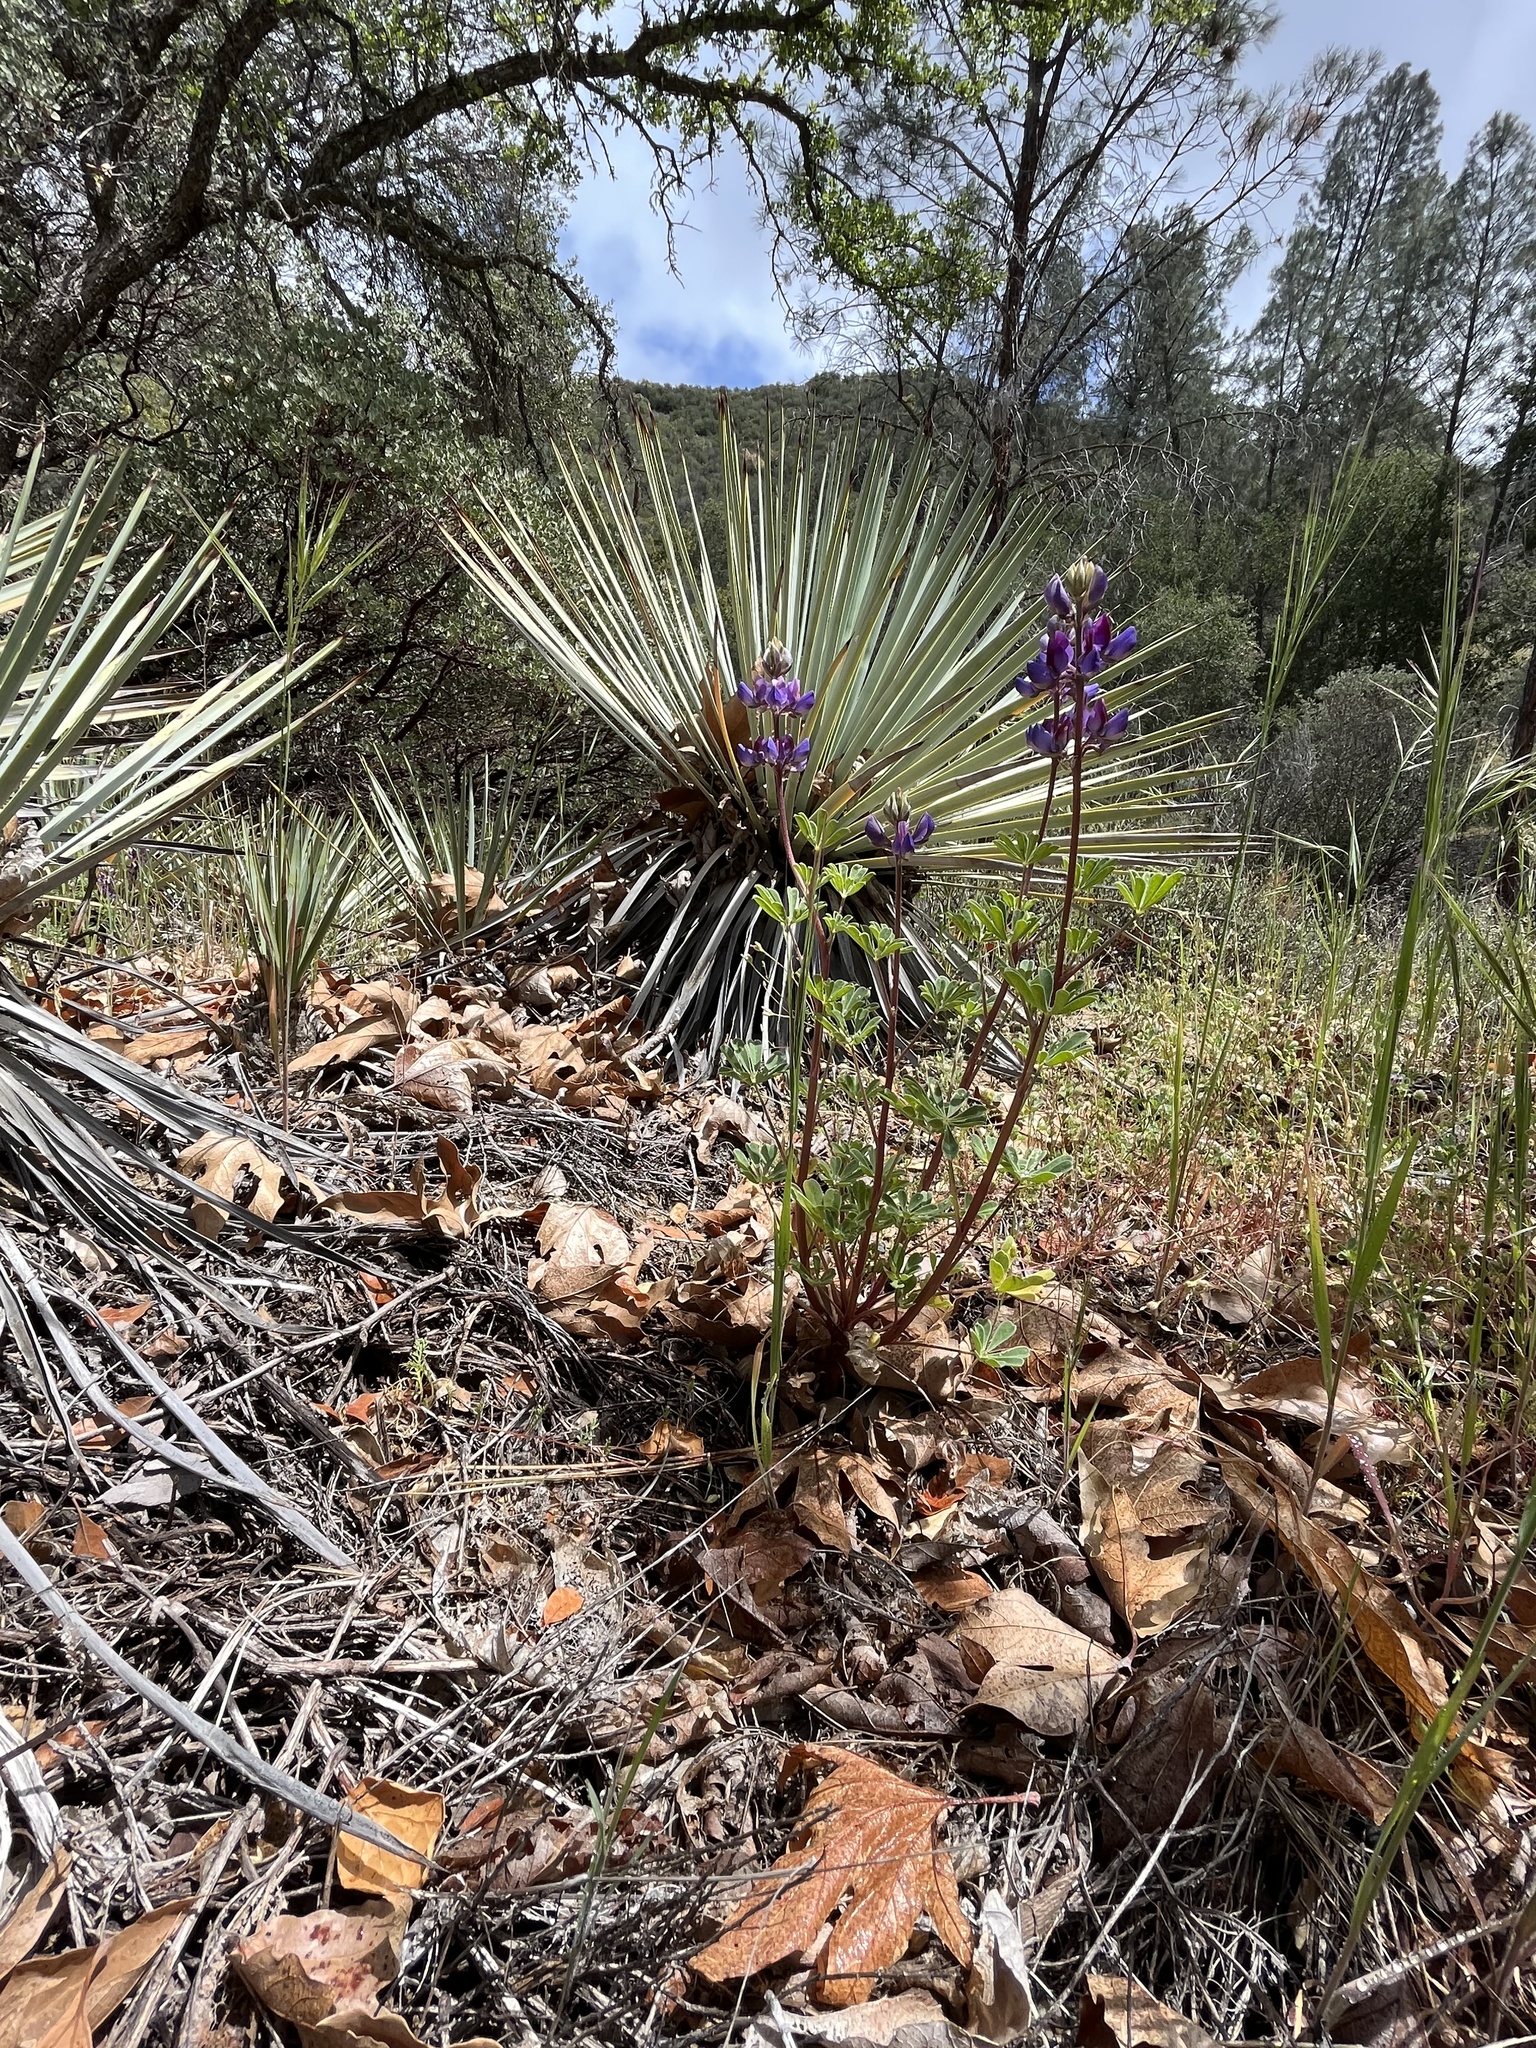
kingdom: Plantae
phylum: Tracheophyta
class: Magnoliopsida
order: Fabales
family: Fabaceae
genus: Lupinus
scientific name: Lupinus succulentus
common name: Arroyo lupine
